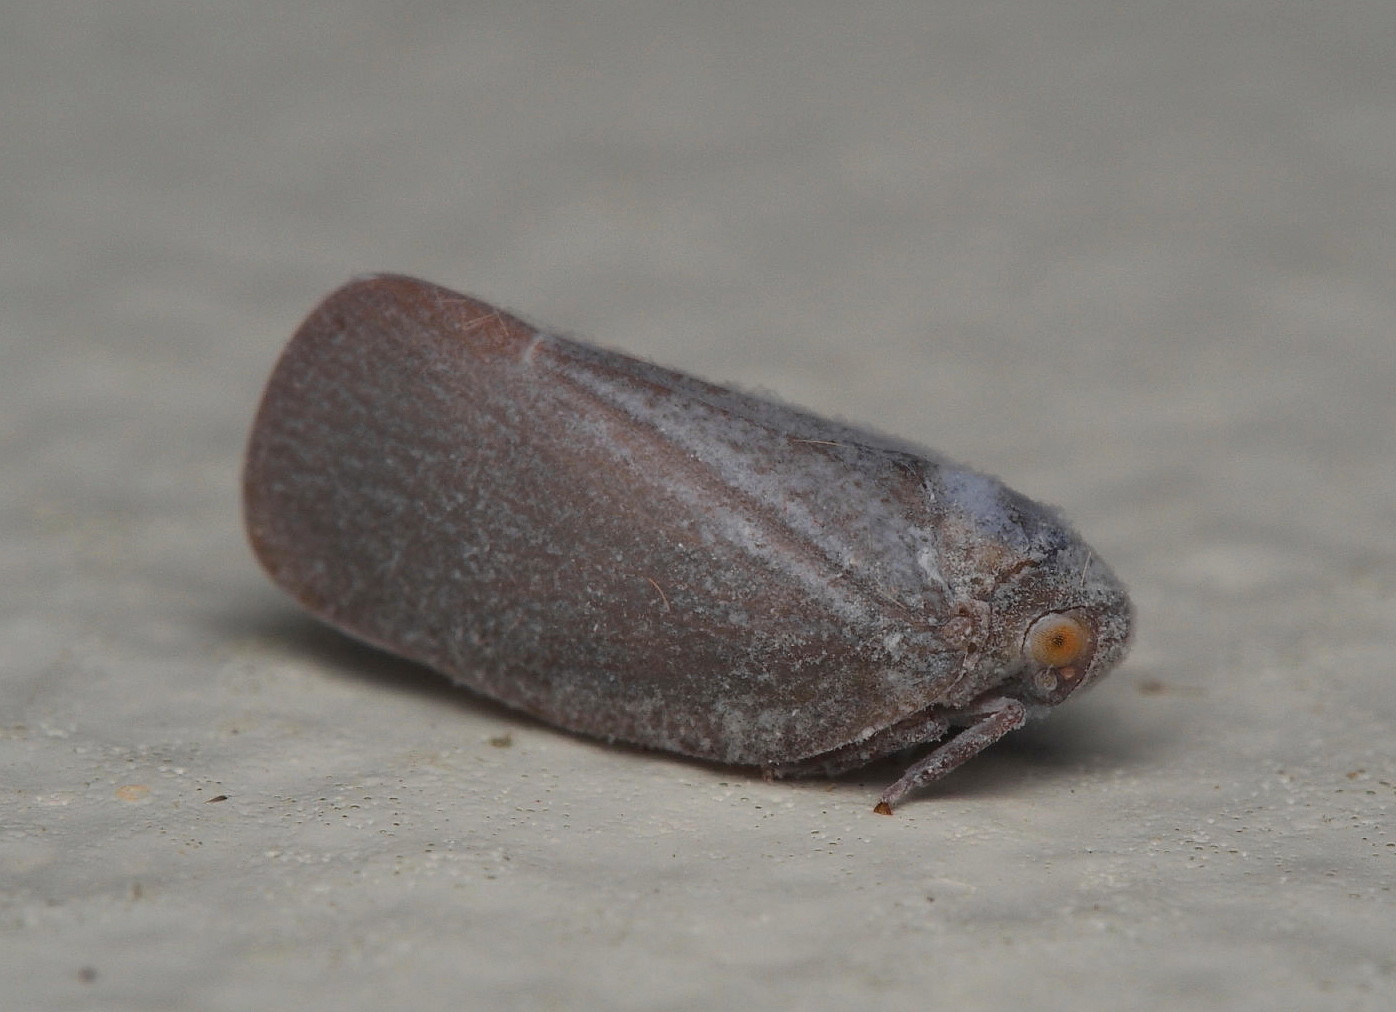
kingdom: Animalia
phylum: Arthropoda
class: Insecta
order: Hemiptera
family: Flatidae
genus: Anzora
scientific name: Anzora unicolor
